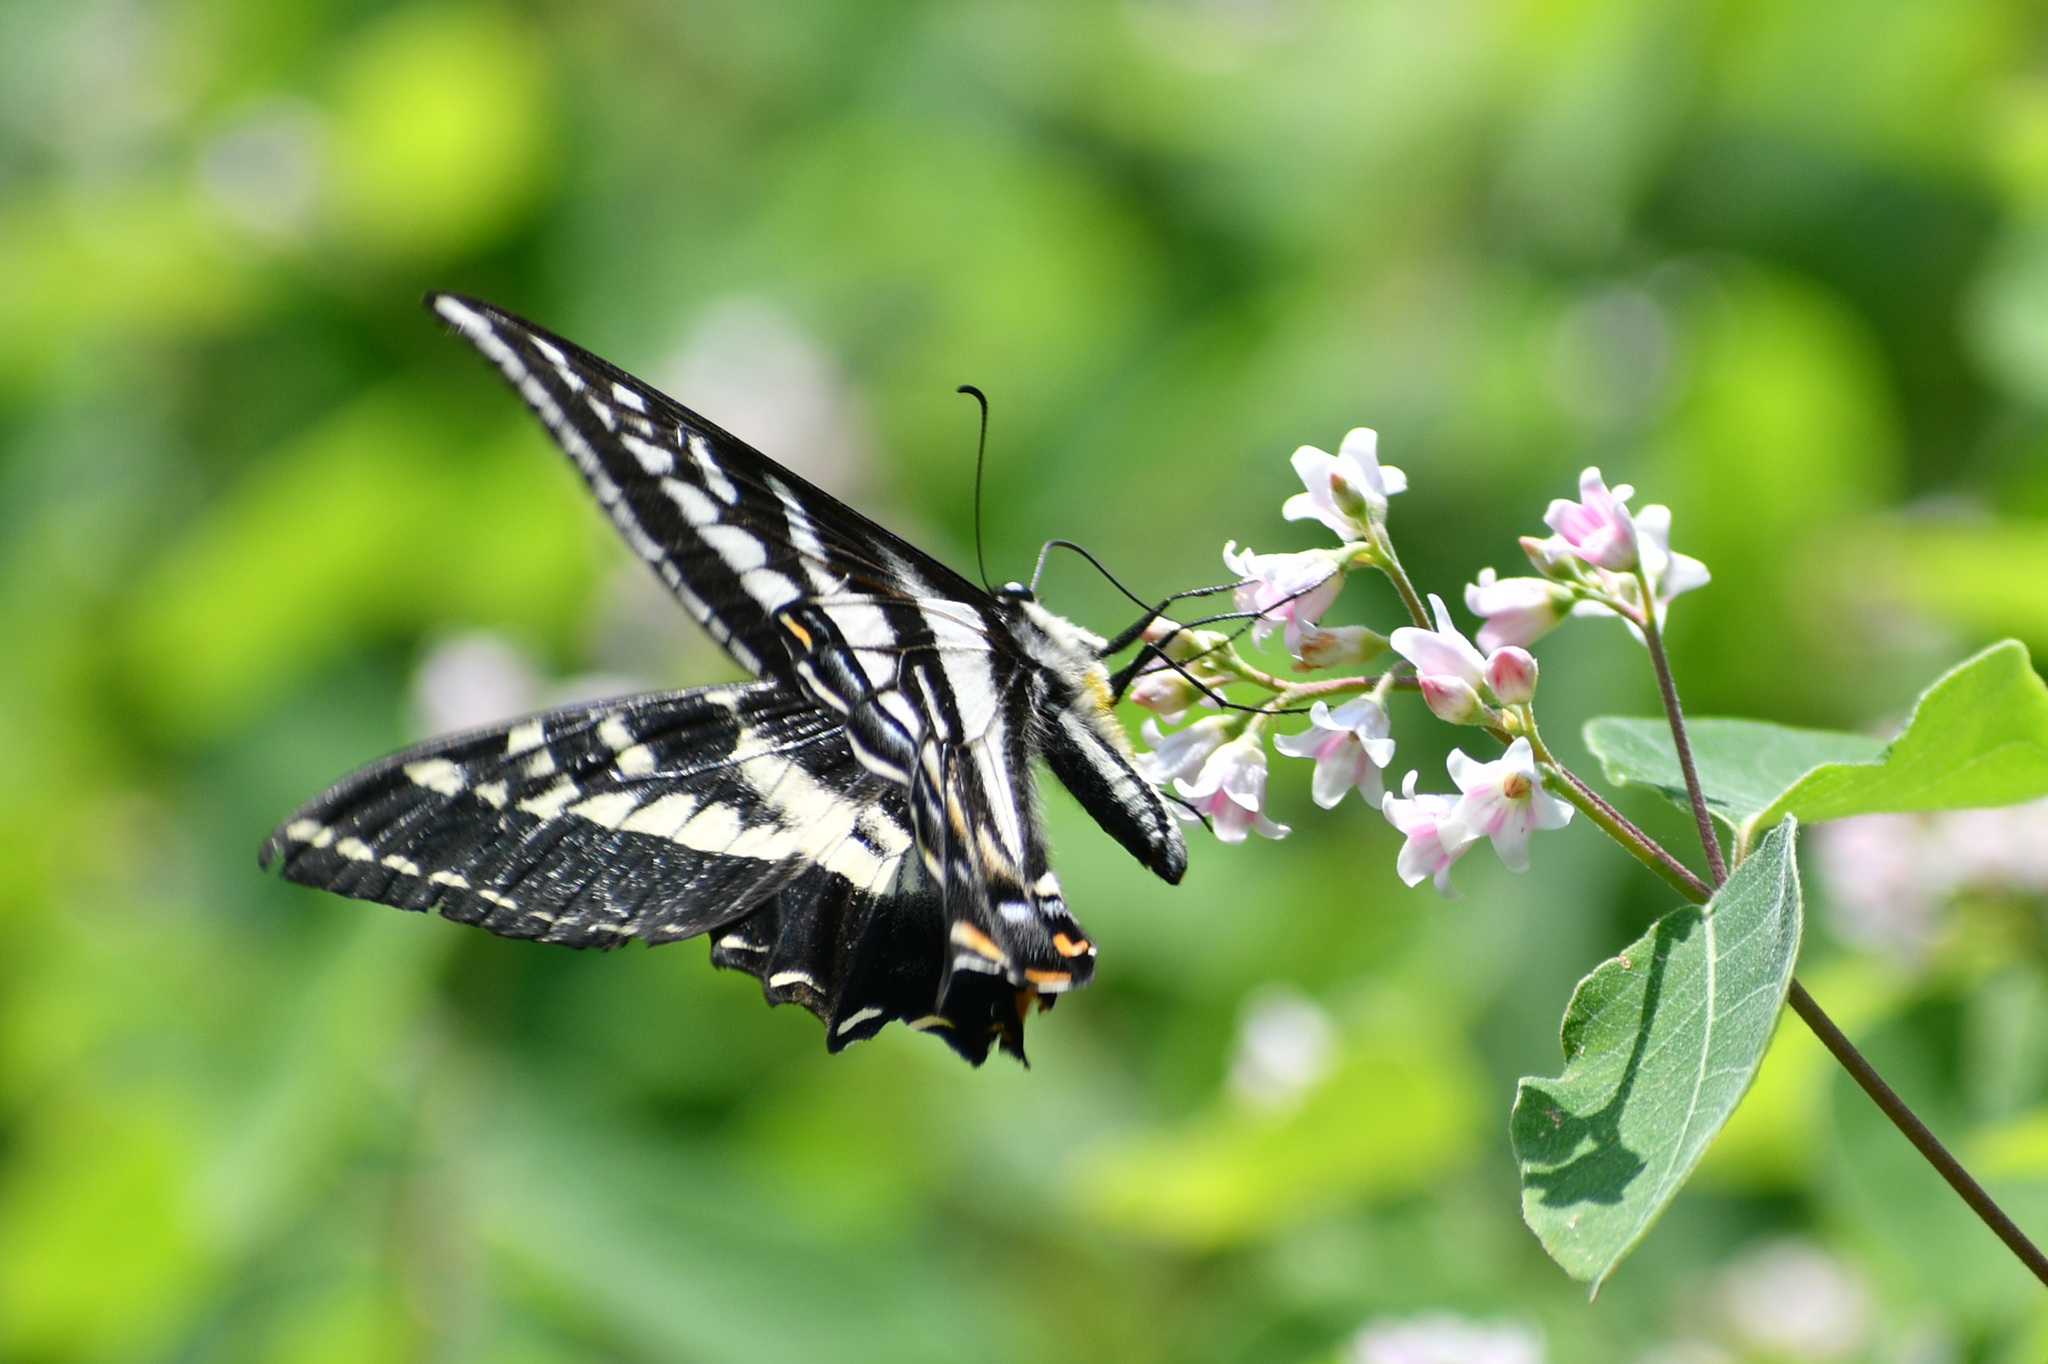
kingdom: Animalia
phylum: Arthropoda
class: Insecta
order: Lepidoptera
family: Papilionidae
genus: Papilio
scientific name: Papilio eurymedon
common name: Pale tiger swallowtail
